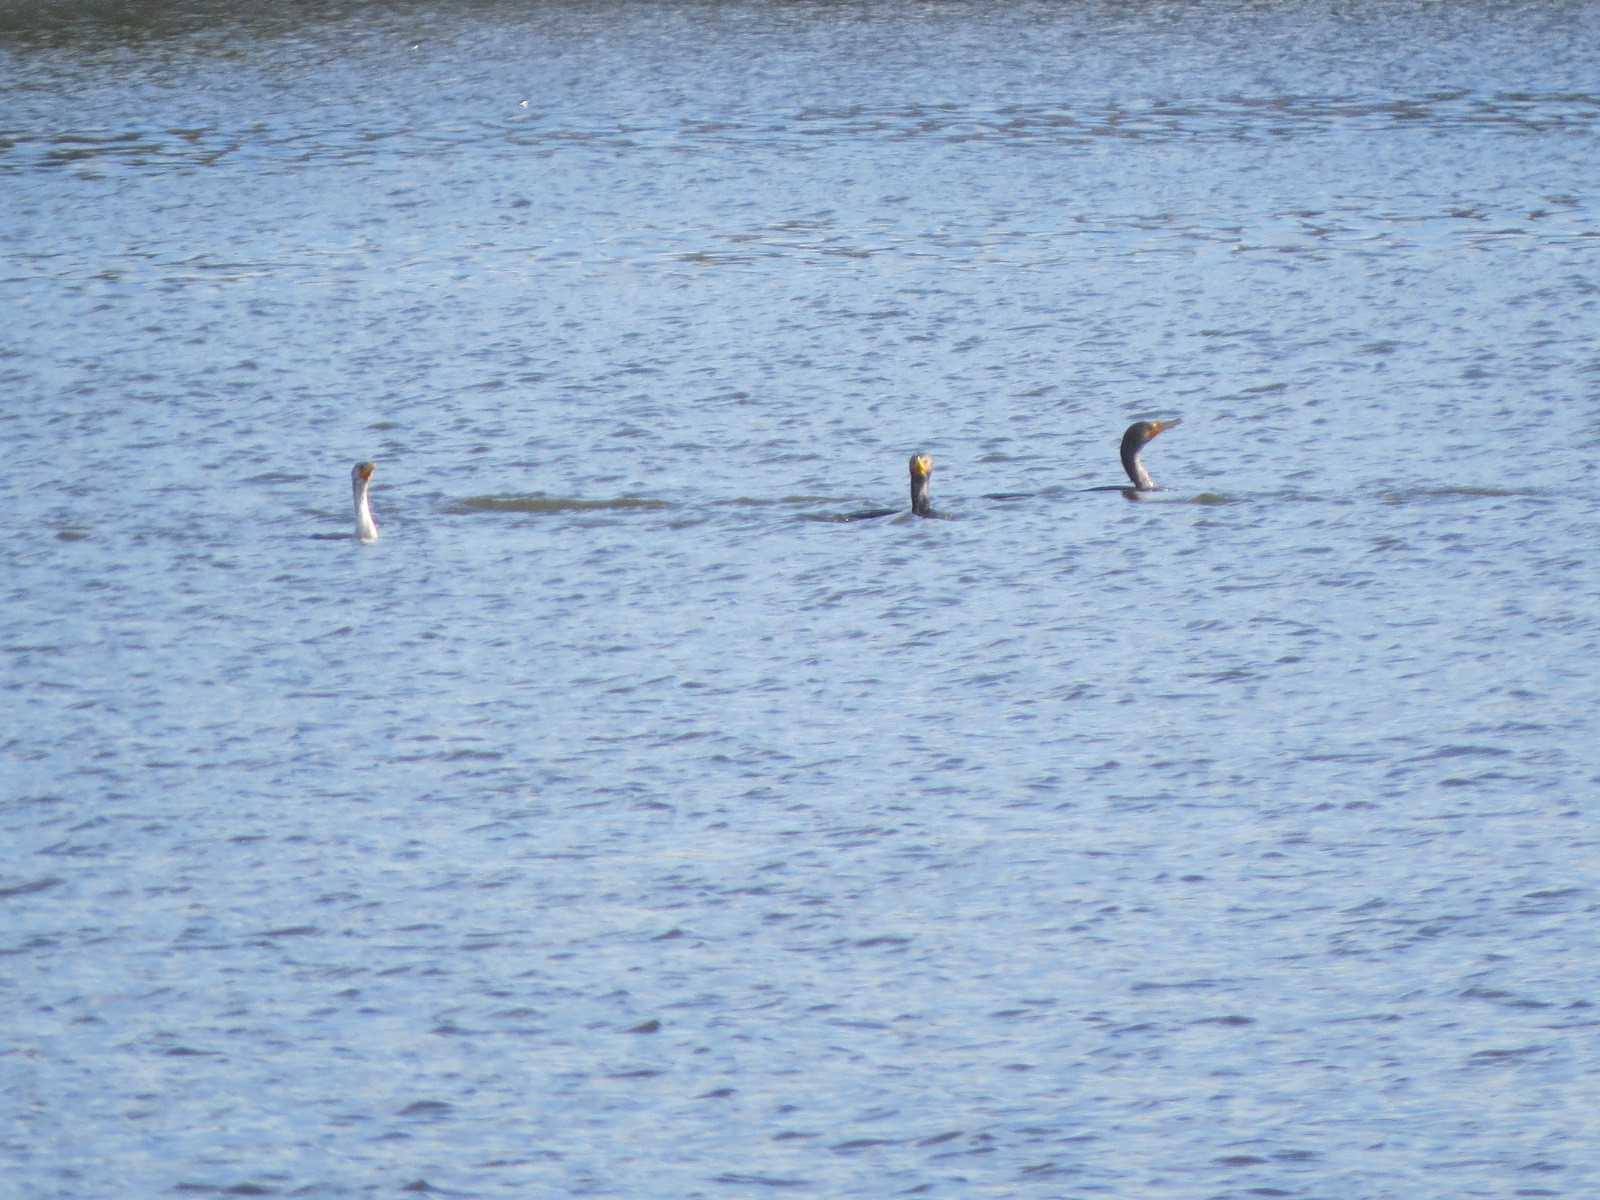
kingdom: Animalia
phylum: Chordata
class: Aves
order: Suliformes
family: Phalacrocoracidae
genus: Phalacrocorax
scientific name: Phalacrocorax auritus
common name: Double-crested cormorant
